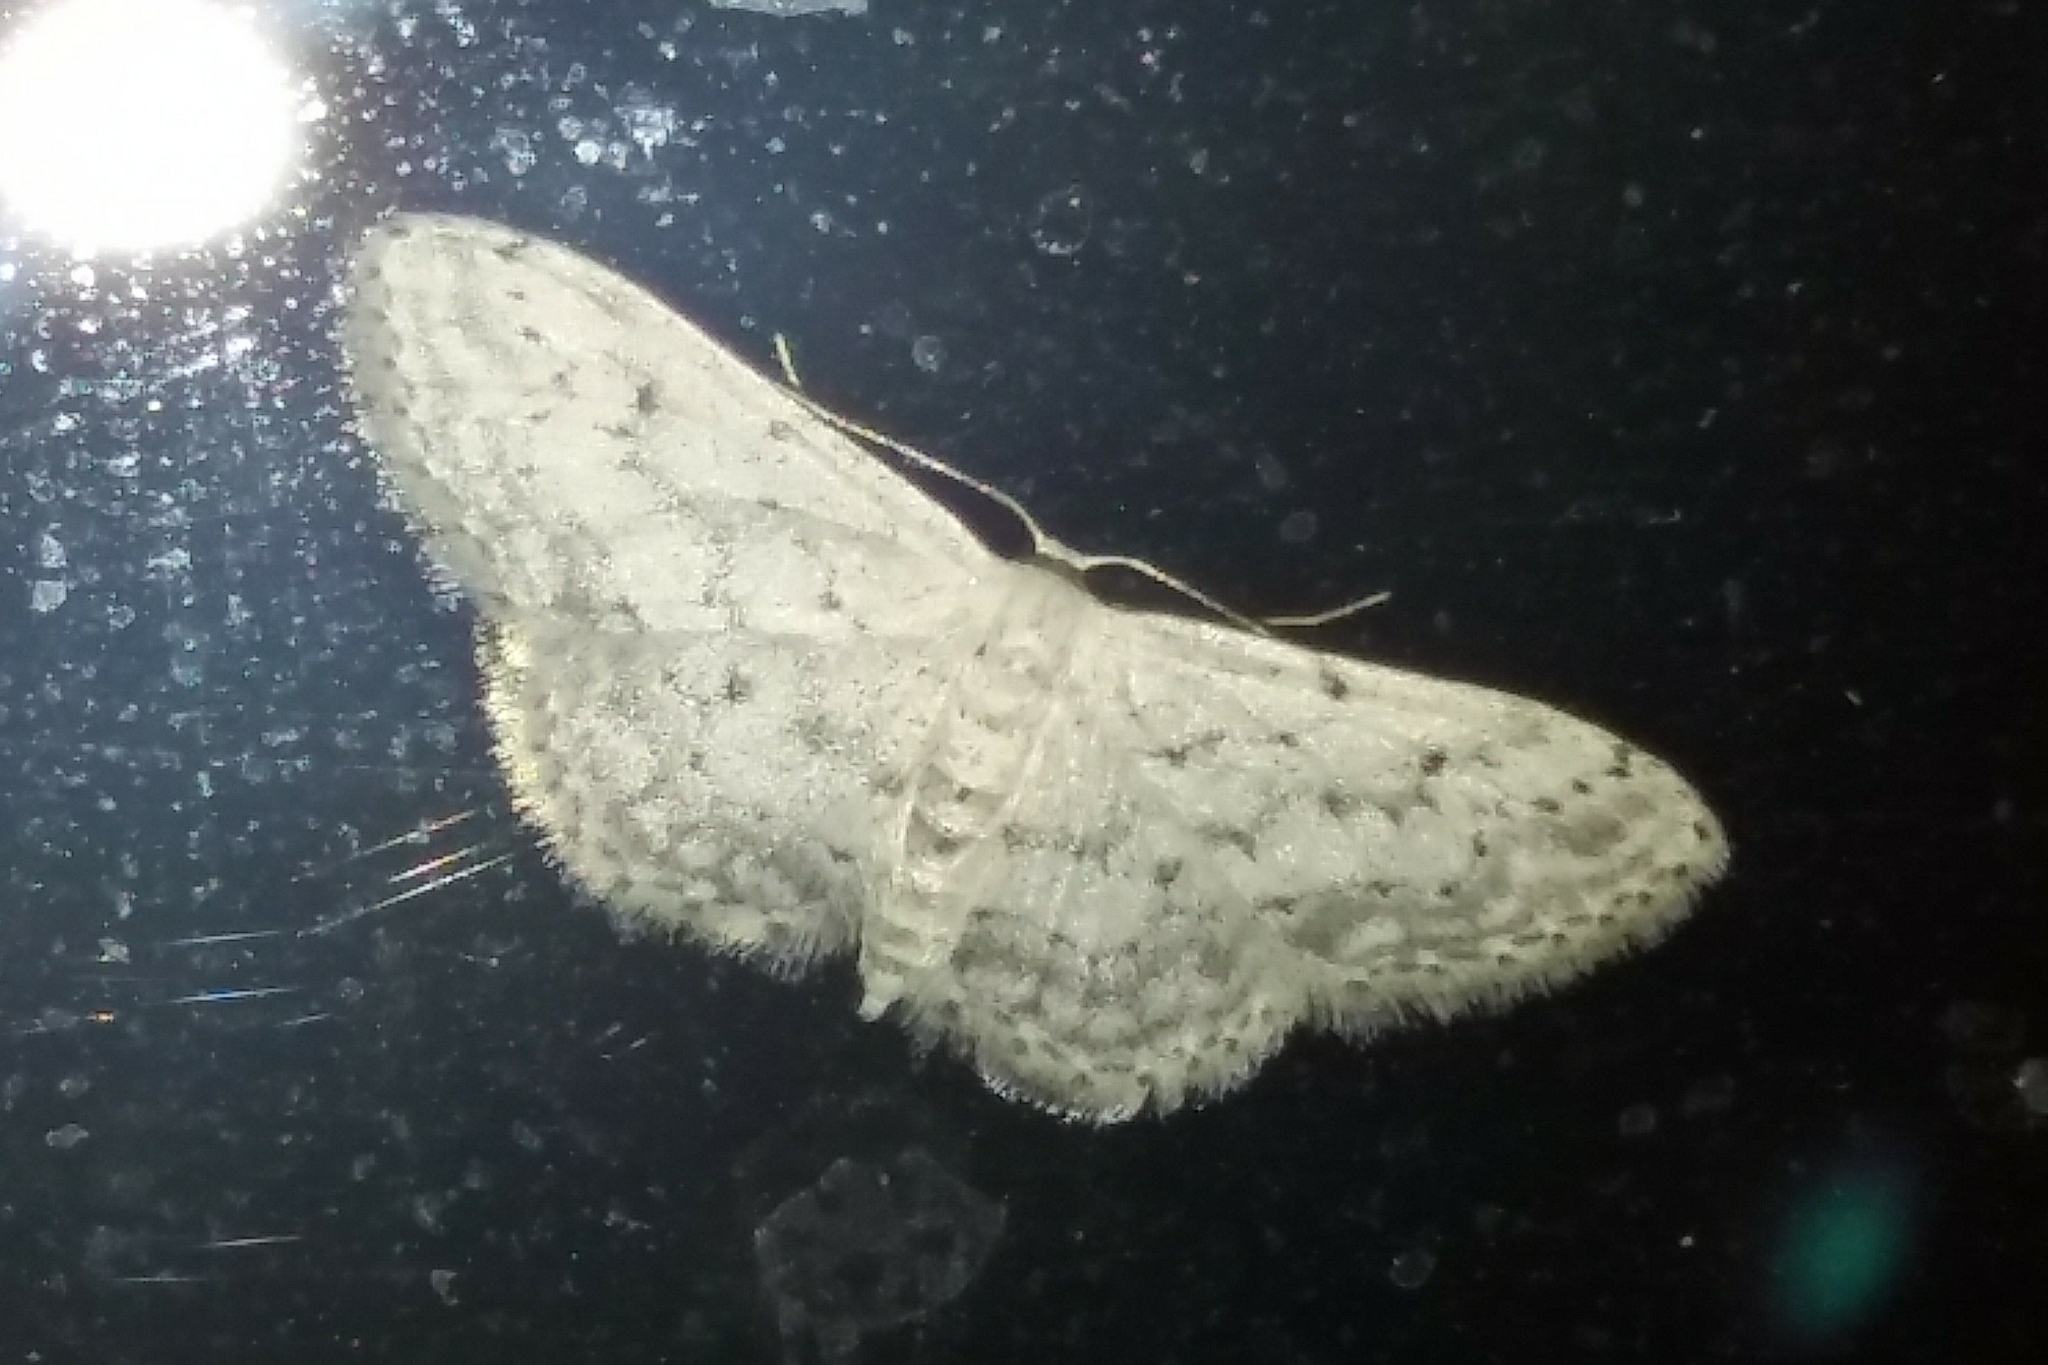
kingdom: Animalia
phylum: Arthropoda
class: Insecta
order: Lepidoptera
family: Geometridae
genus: Idaea
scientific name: Idaea seriata
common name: Small dusty wave
